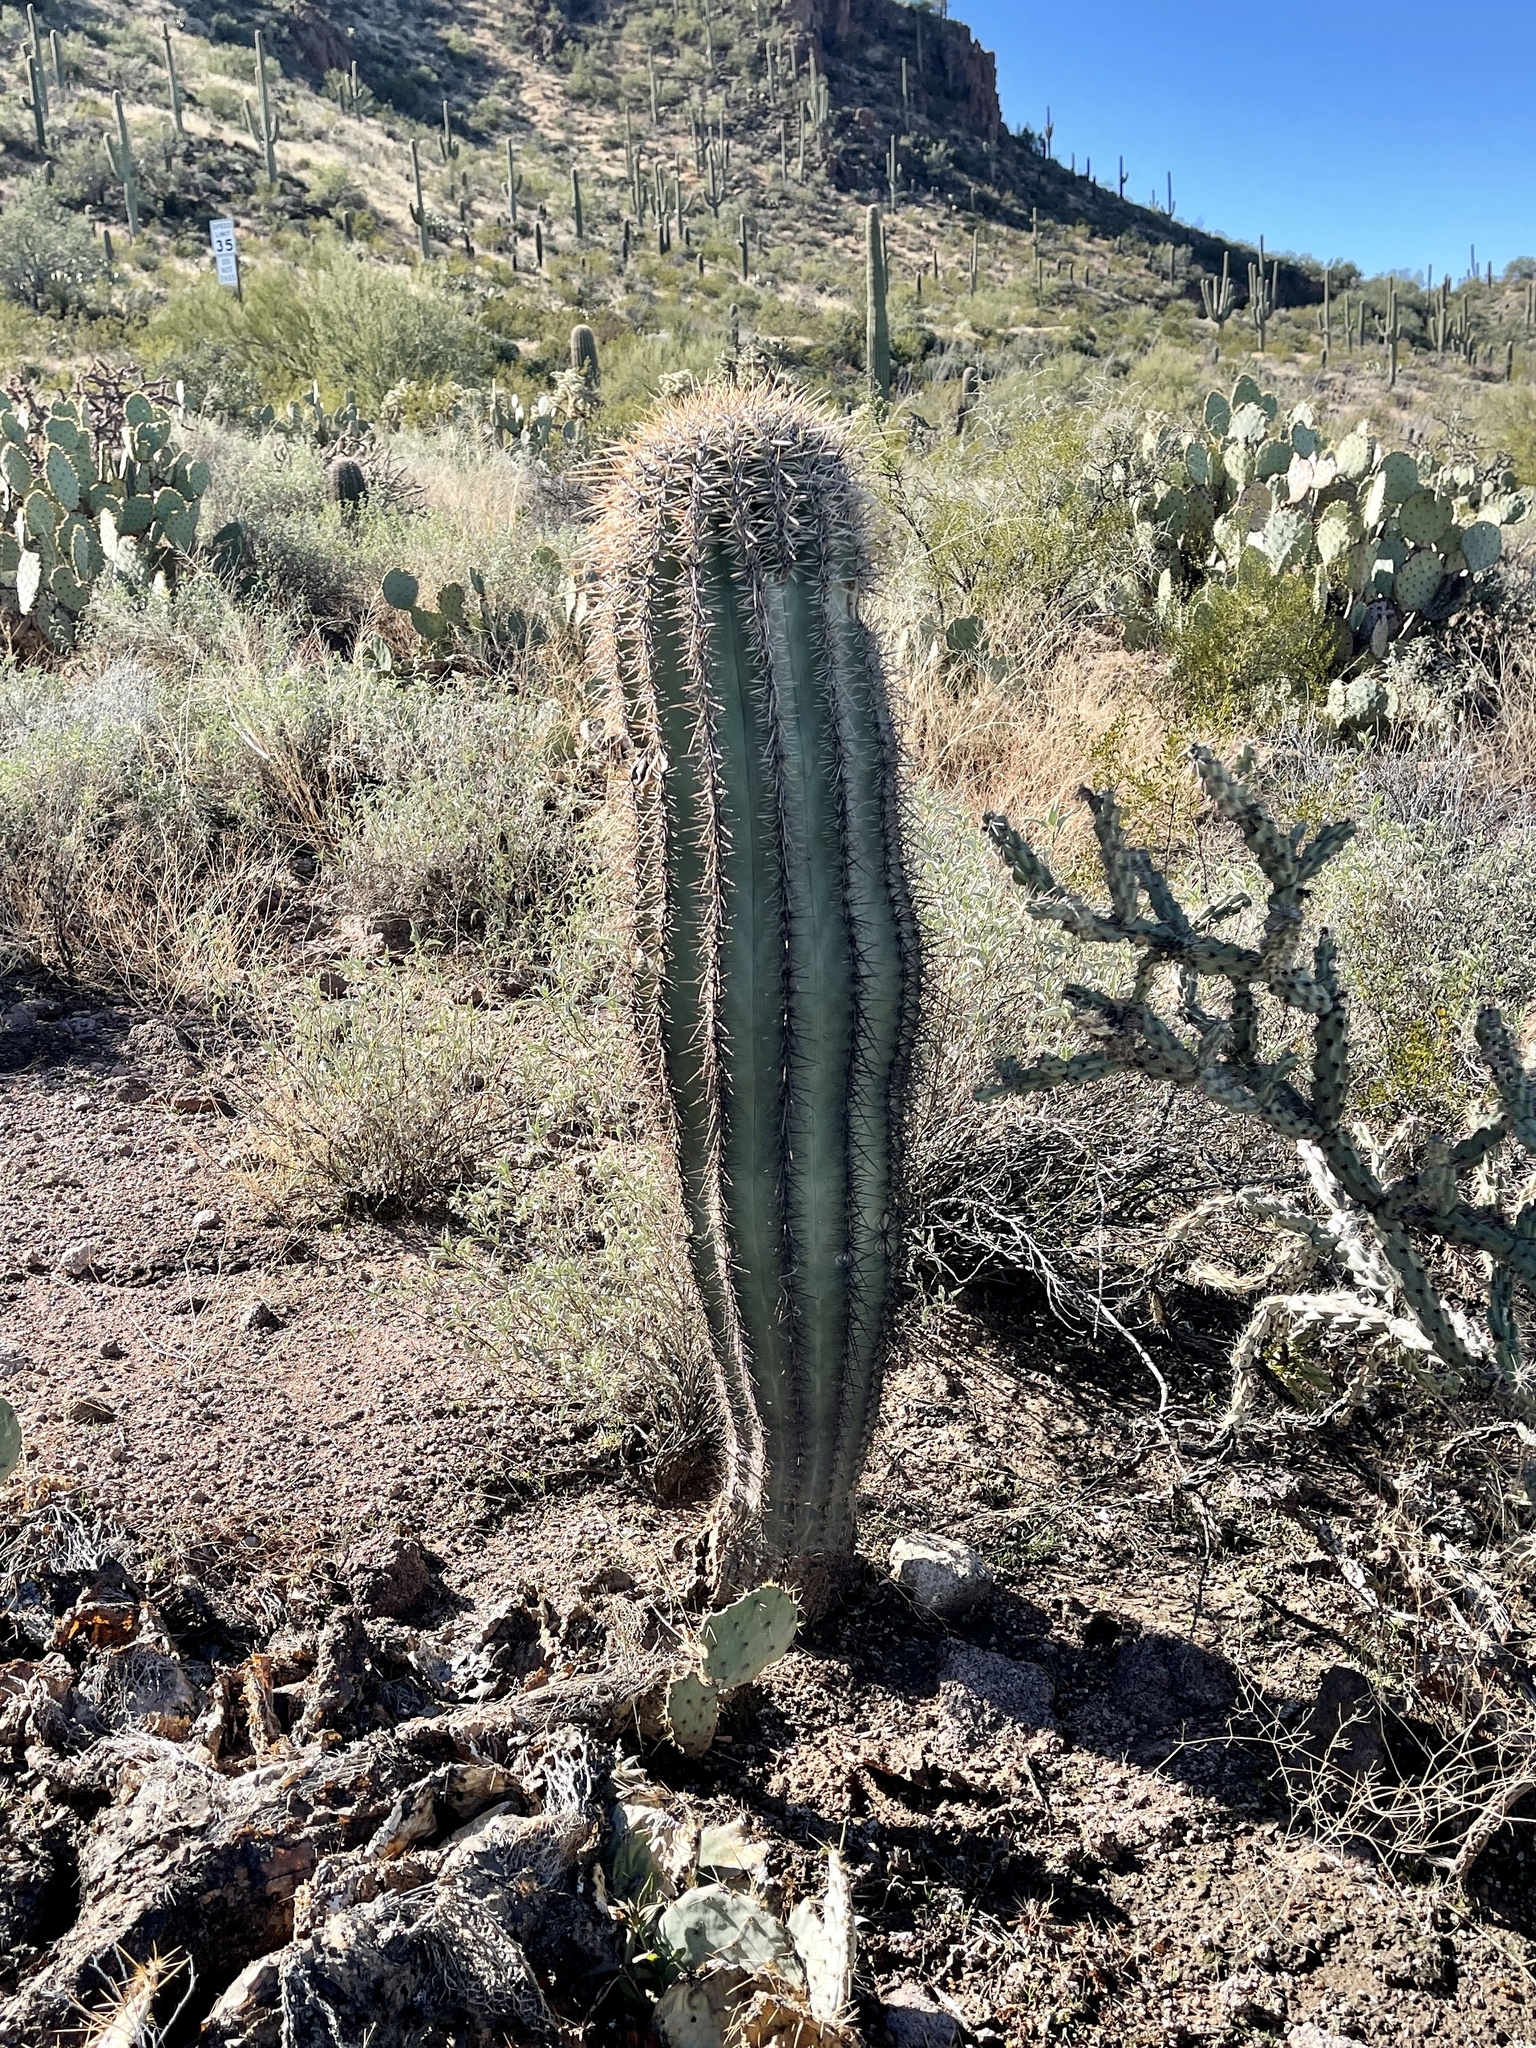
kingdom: Plantae
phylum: Tracheophyta
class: Magnoliopsida
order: Caryophyllales
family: Cactaceae
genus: Carnegiea
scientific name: Carnegiea gigantea
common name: Saguaro
